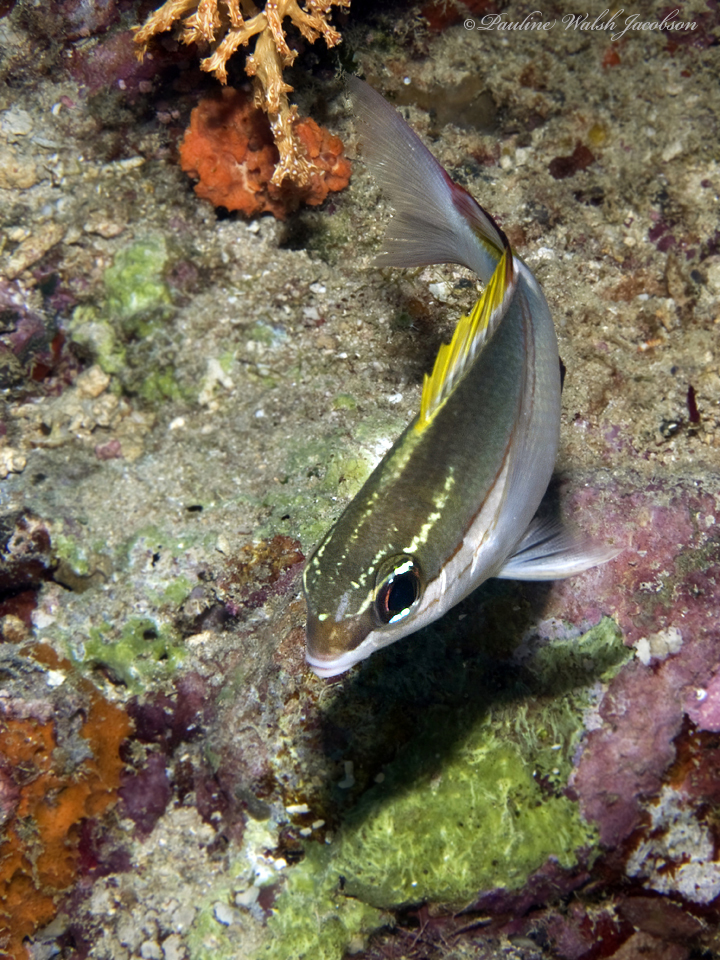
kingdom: Animalia
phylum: Chordata
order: Perciformes
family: Nemipteridae
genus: Scolopsis
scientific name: Scolopsis bilineata
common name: Two-lined monocle bream
